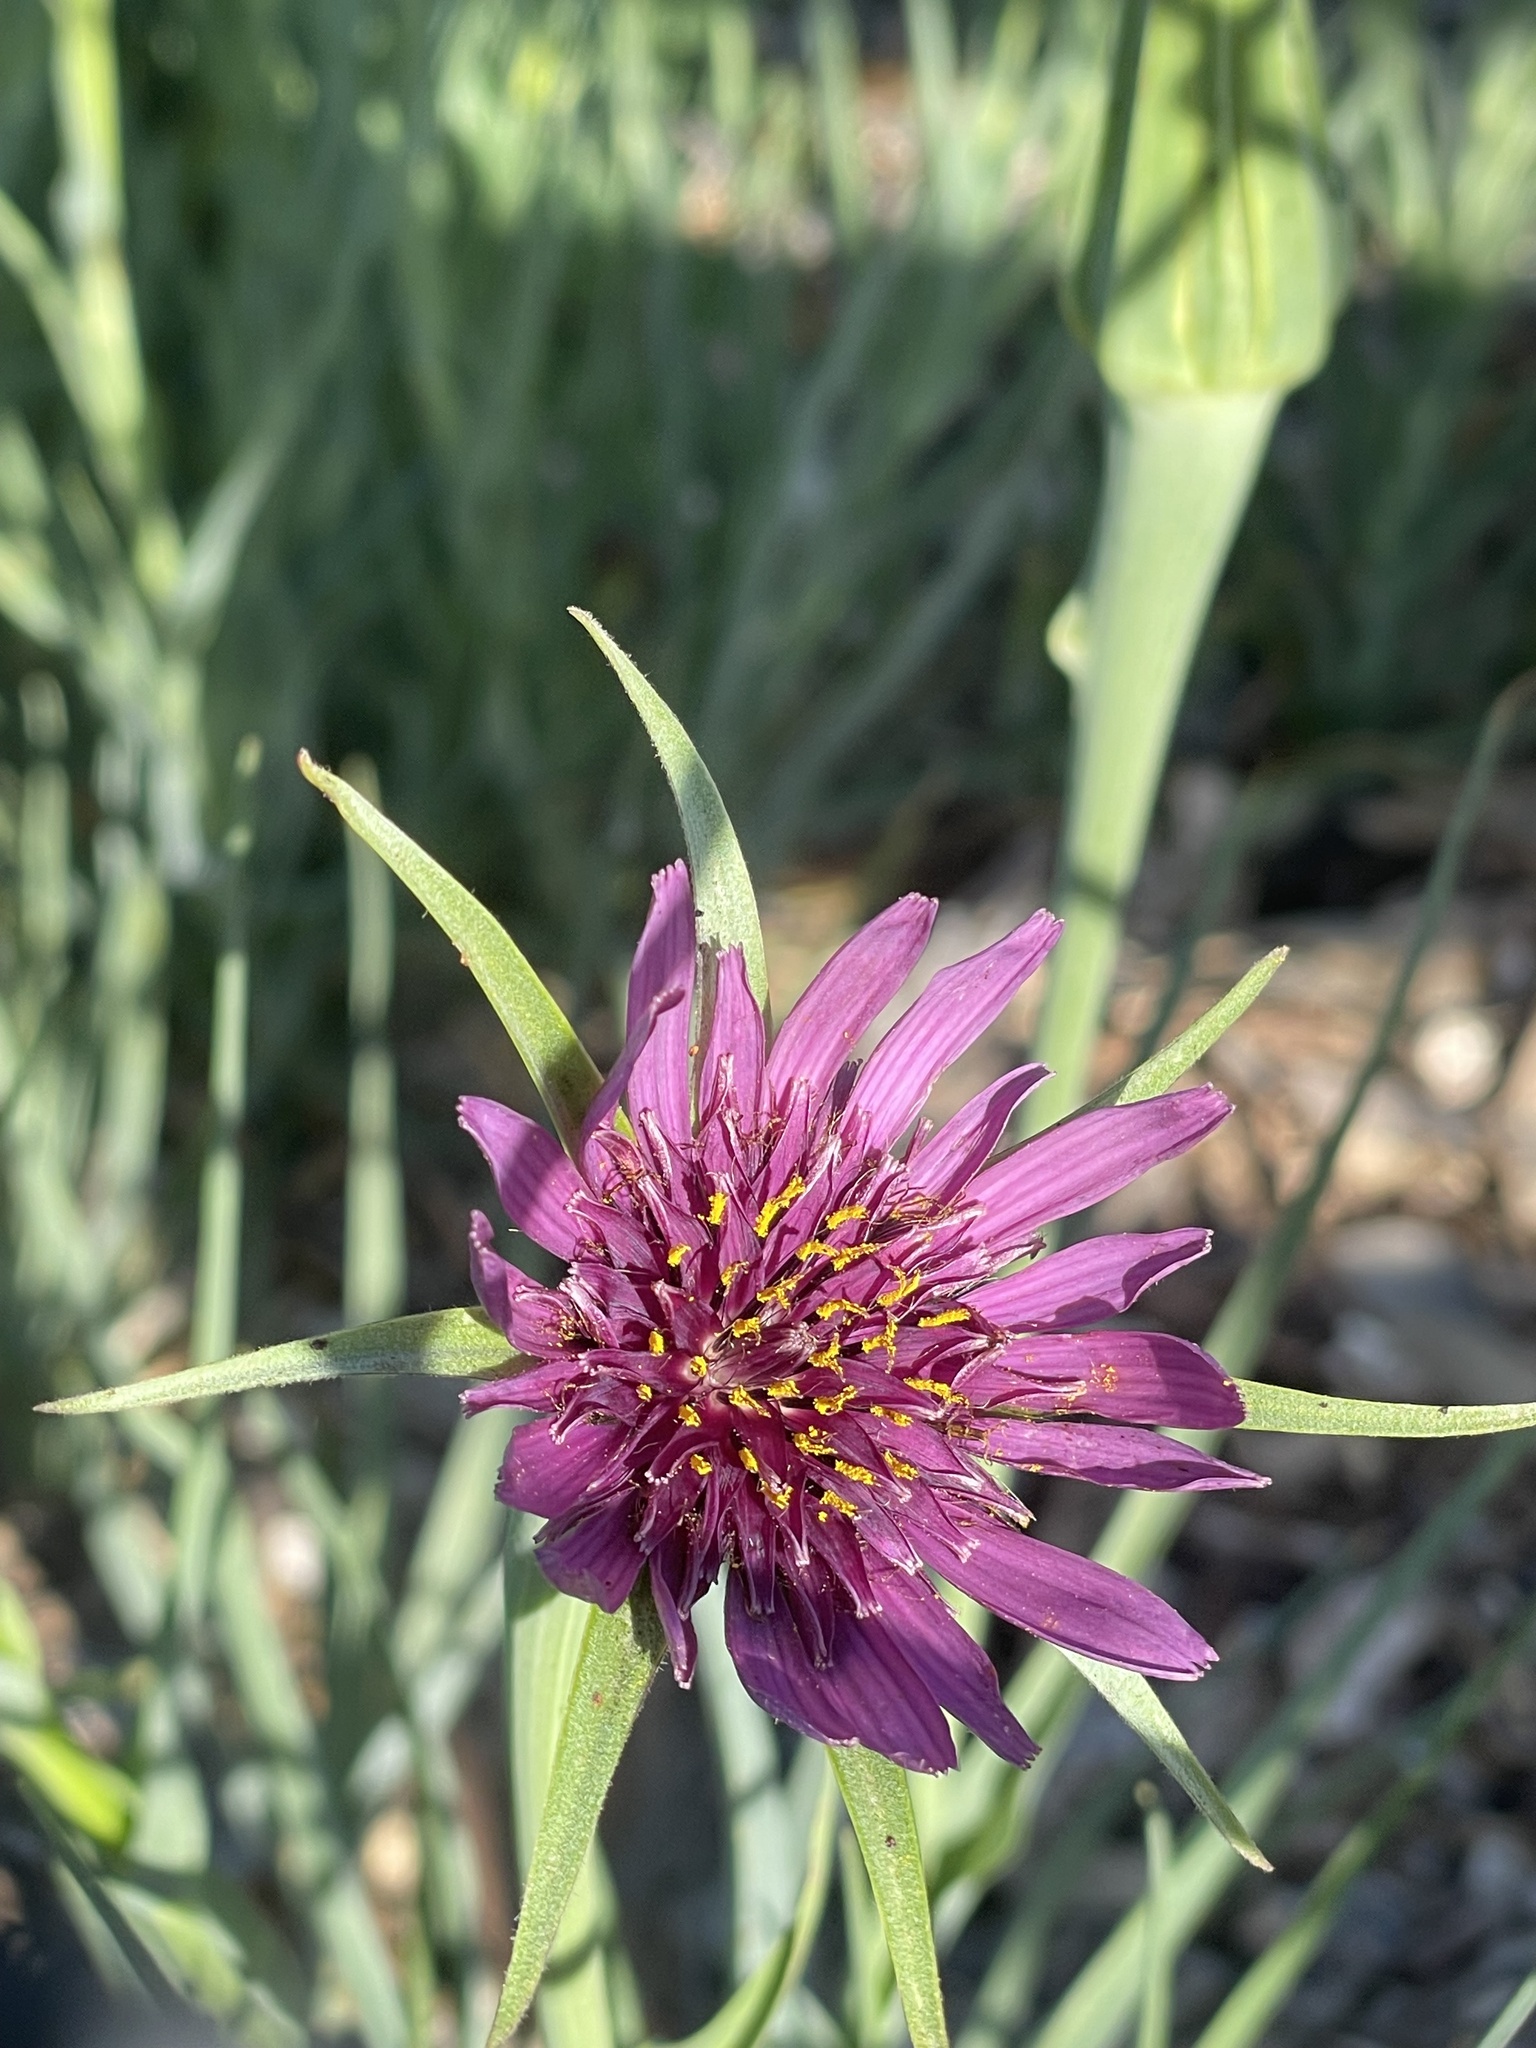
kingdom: Plantae
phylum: Tracheophyta
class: Magnoliopsida
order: Asterales
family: Asteraceae
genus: Tragopogon
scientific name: Tragopogon porrifolius
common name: Salsify
